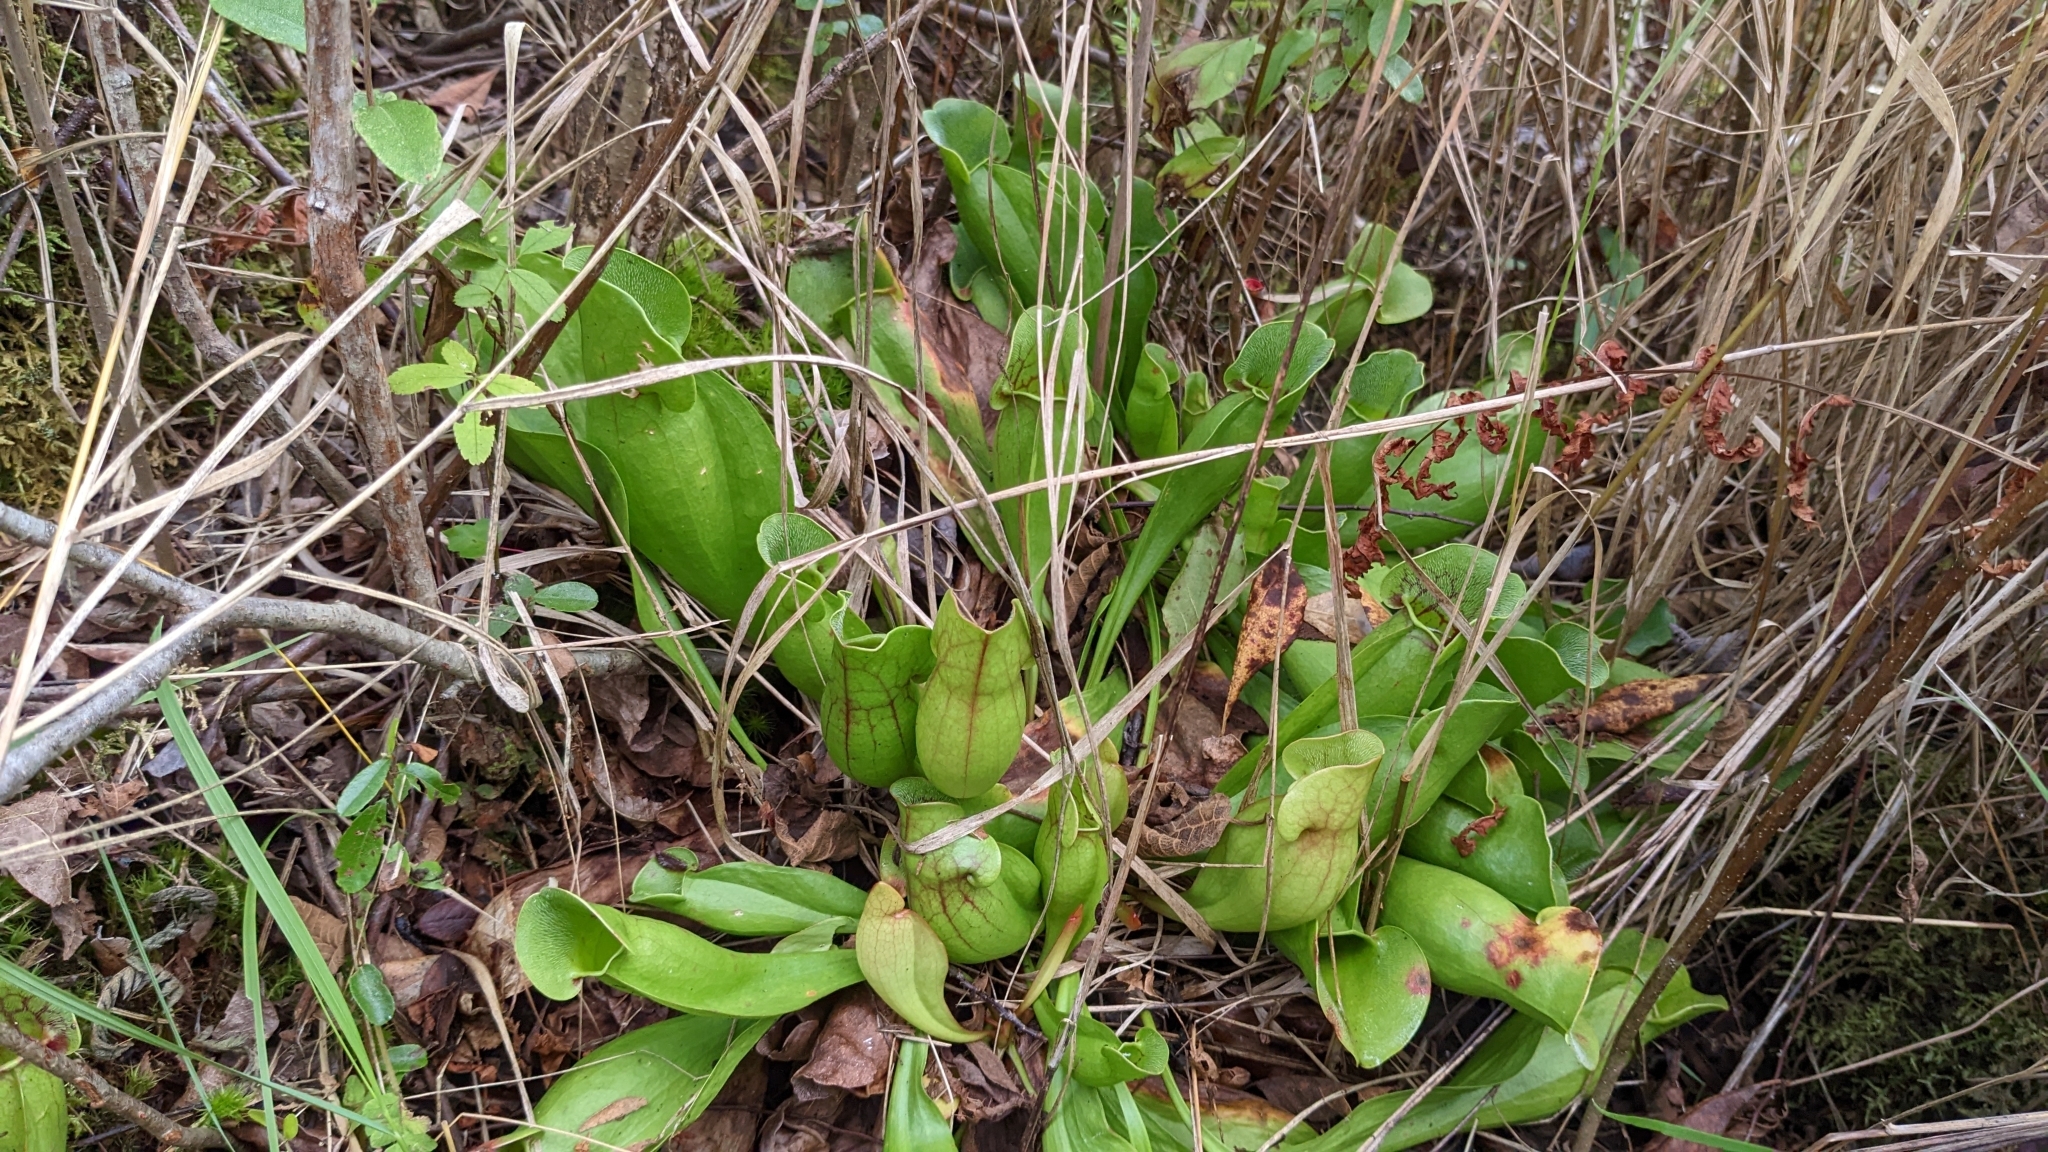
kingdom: Plantae
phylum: Tracheophyta
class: Magnoliopsida
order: Ericales
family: Sarraceniaceae
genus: Sarracenia
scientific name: Sarracenia purpurea
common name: Pitcherplant
